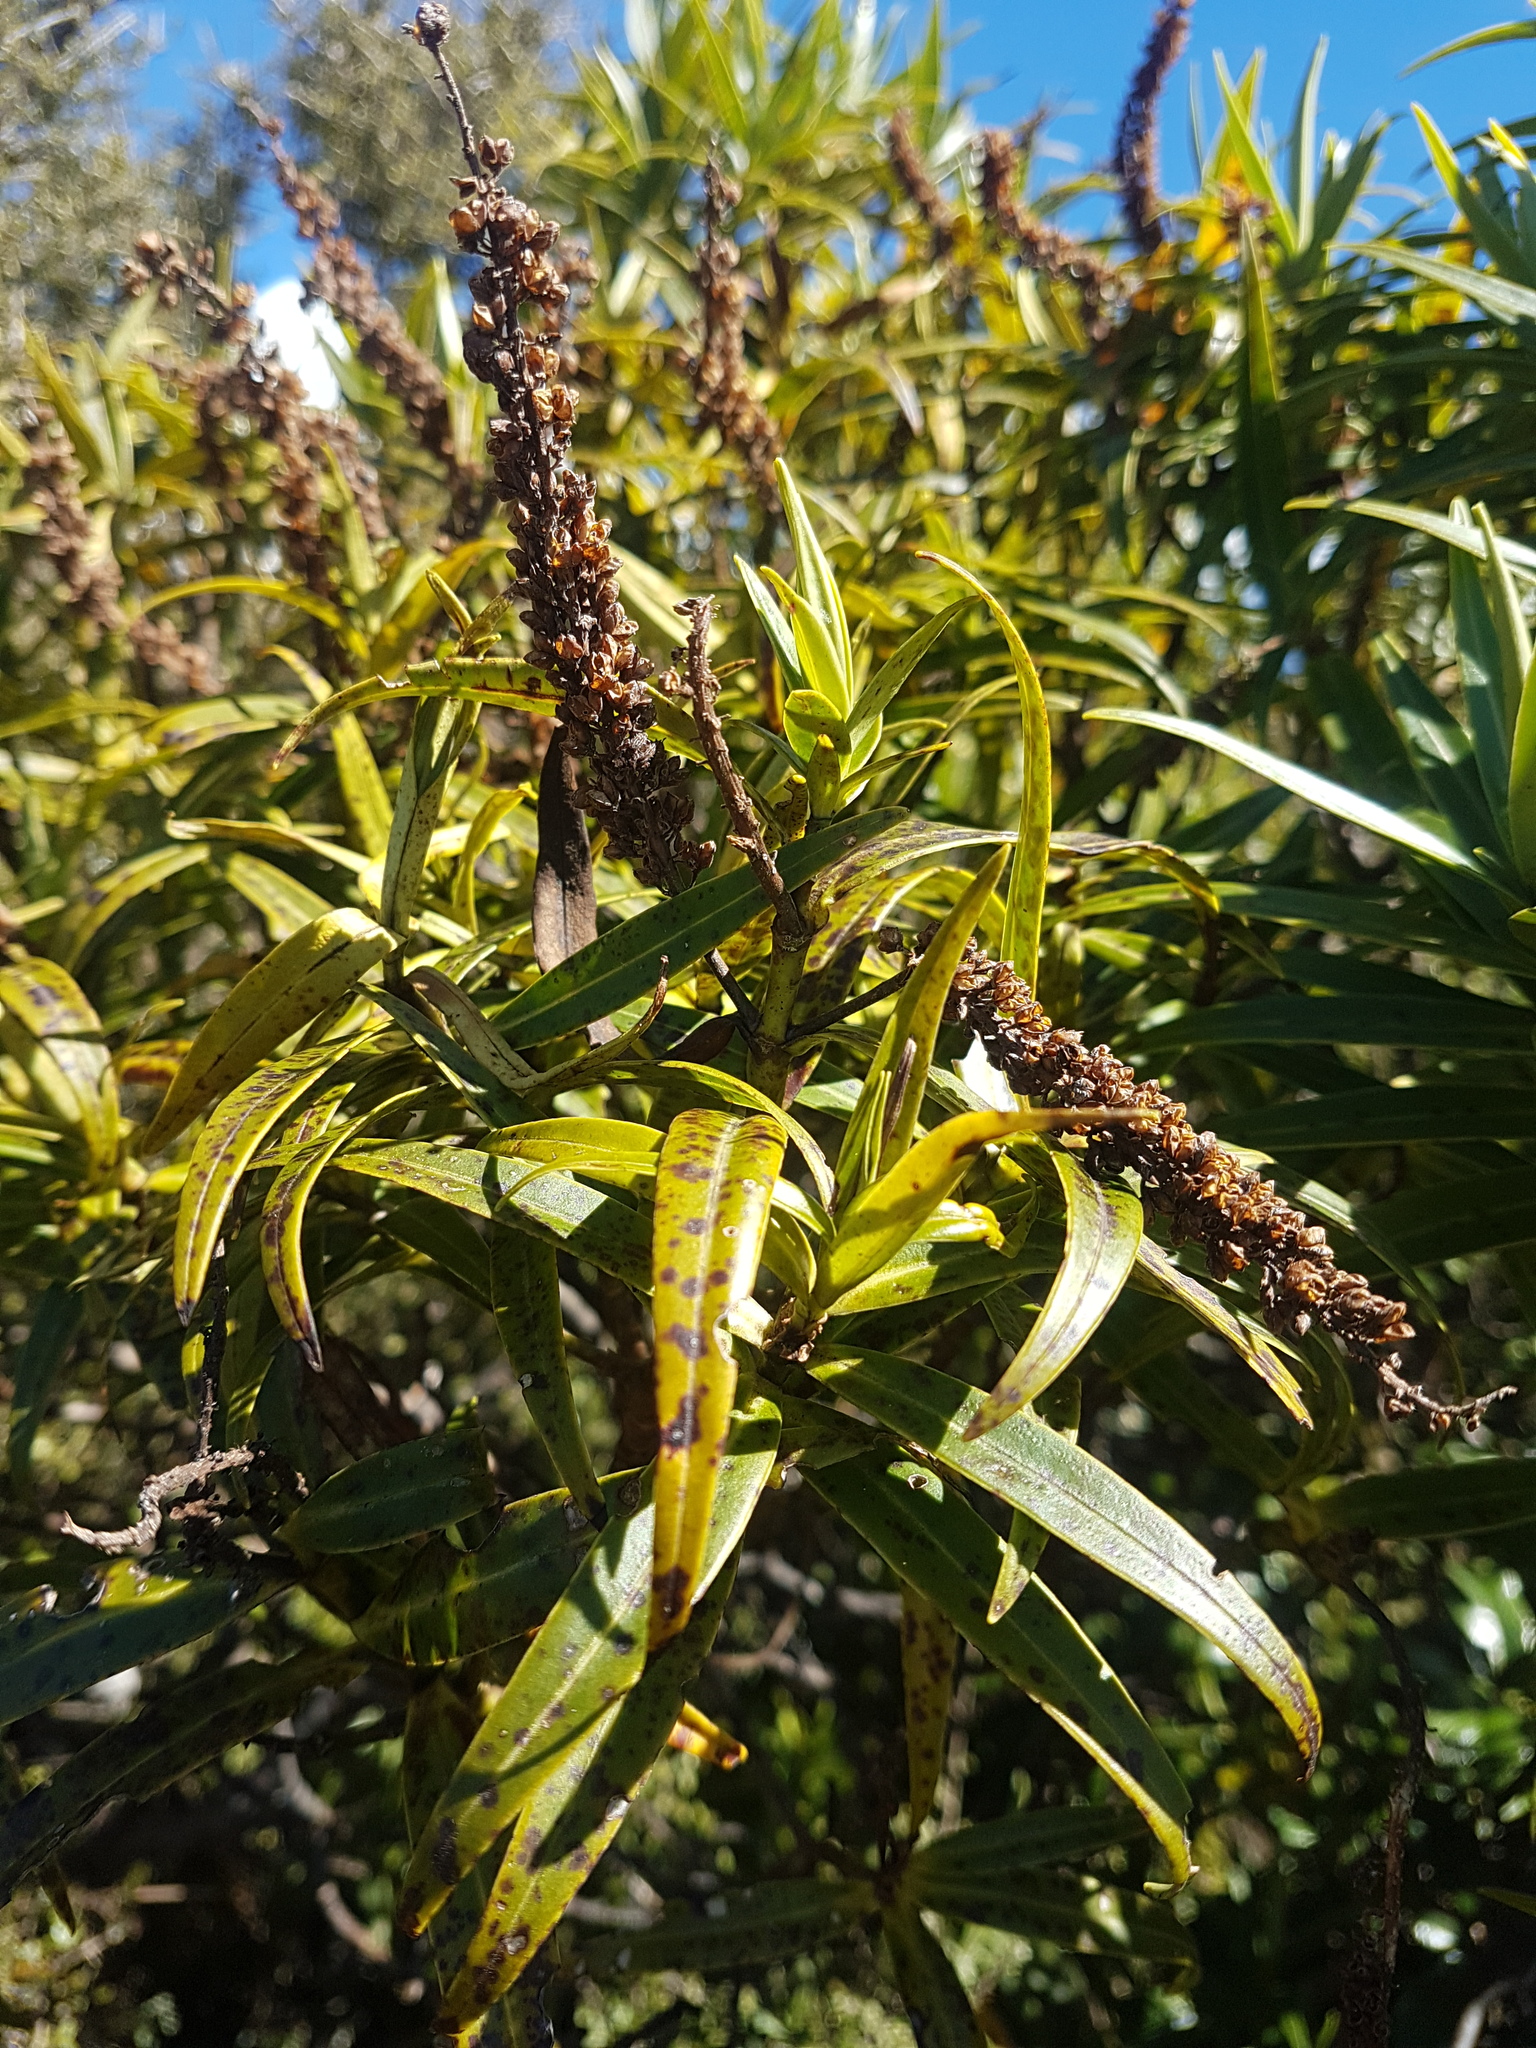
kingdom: Plantae
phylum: Tracheophyta
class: Magnoliopsida
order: Lamiales
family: Plantaginaceae
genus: Veronica
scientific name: Veronica stricta
